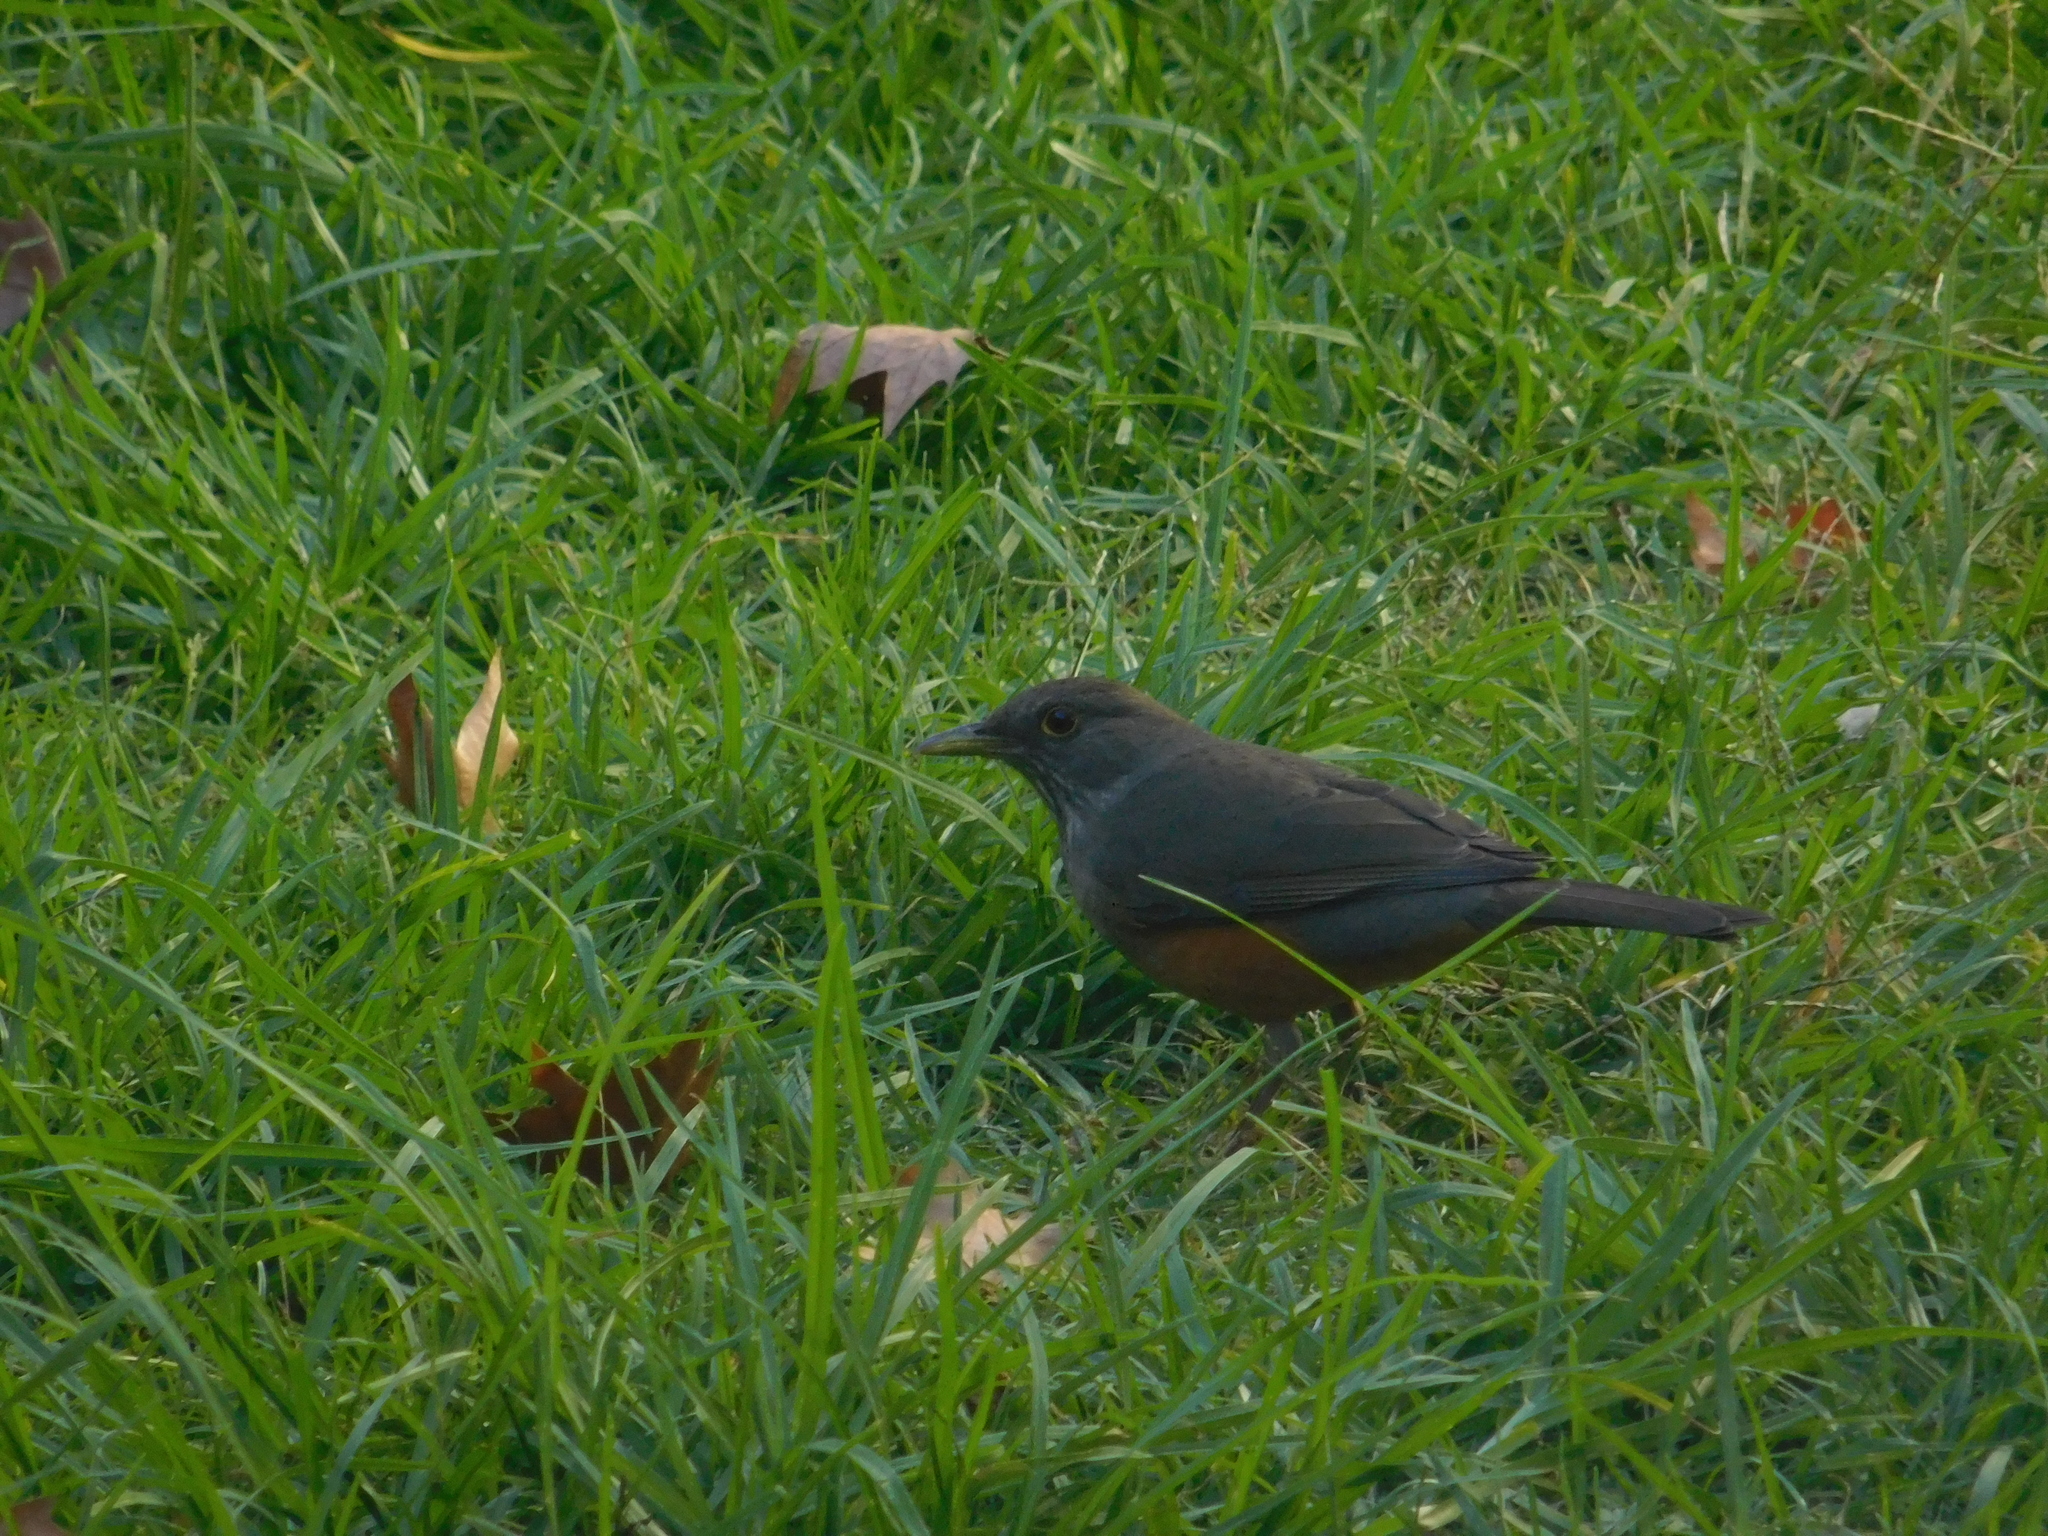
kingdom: Animalia
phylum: Chordata
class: Aves
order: Passeriformes
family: Turdidae
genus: Turdus
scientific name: Turdus rufiventris
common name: Rufous-bellied thrush
